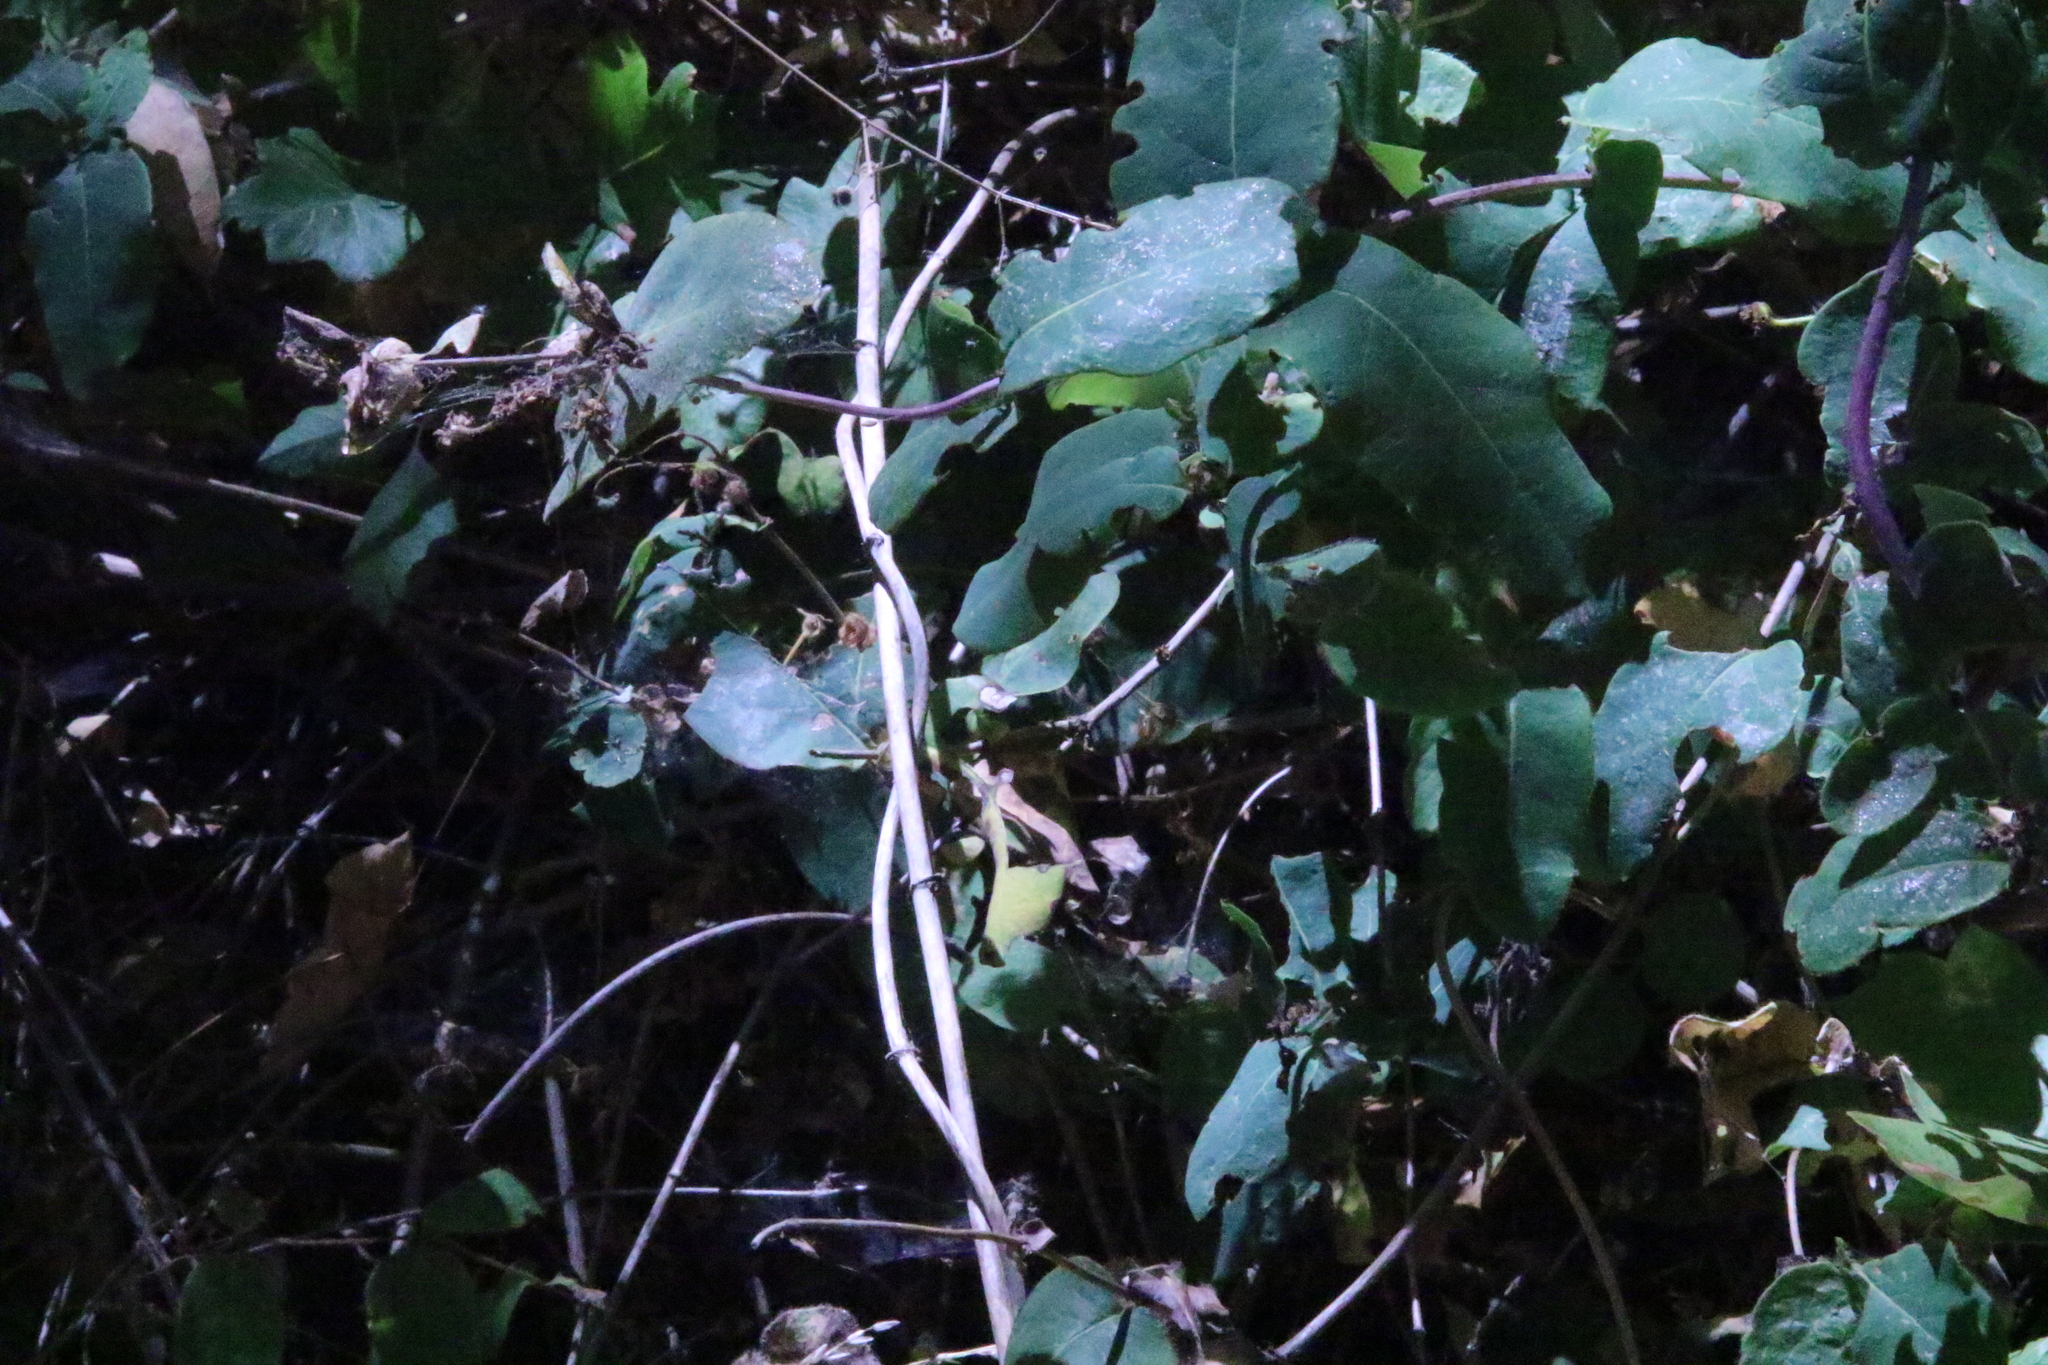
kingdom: Plantae
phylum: Tracheophyta
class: Magnoliopsida
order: Dipsacales
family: Caprifoliaceae
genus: Lonicera
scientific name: Lonicera hispidula
